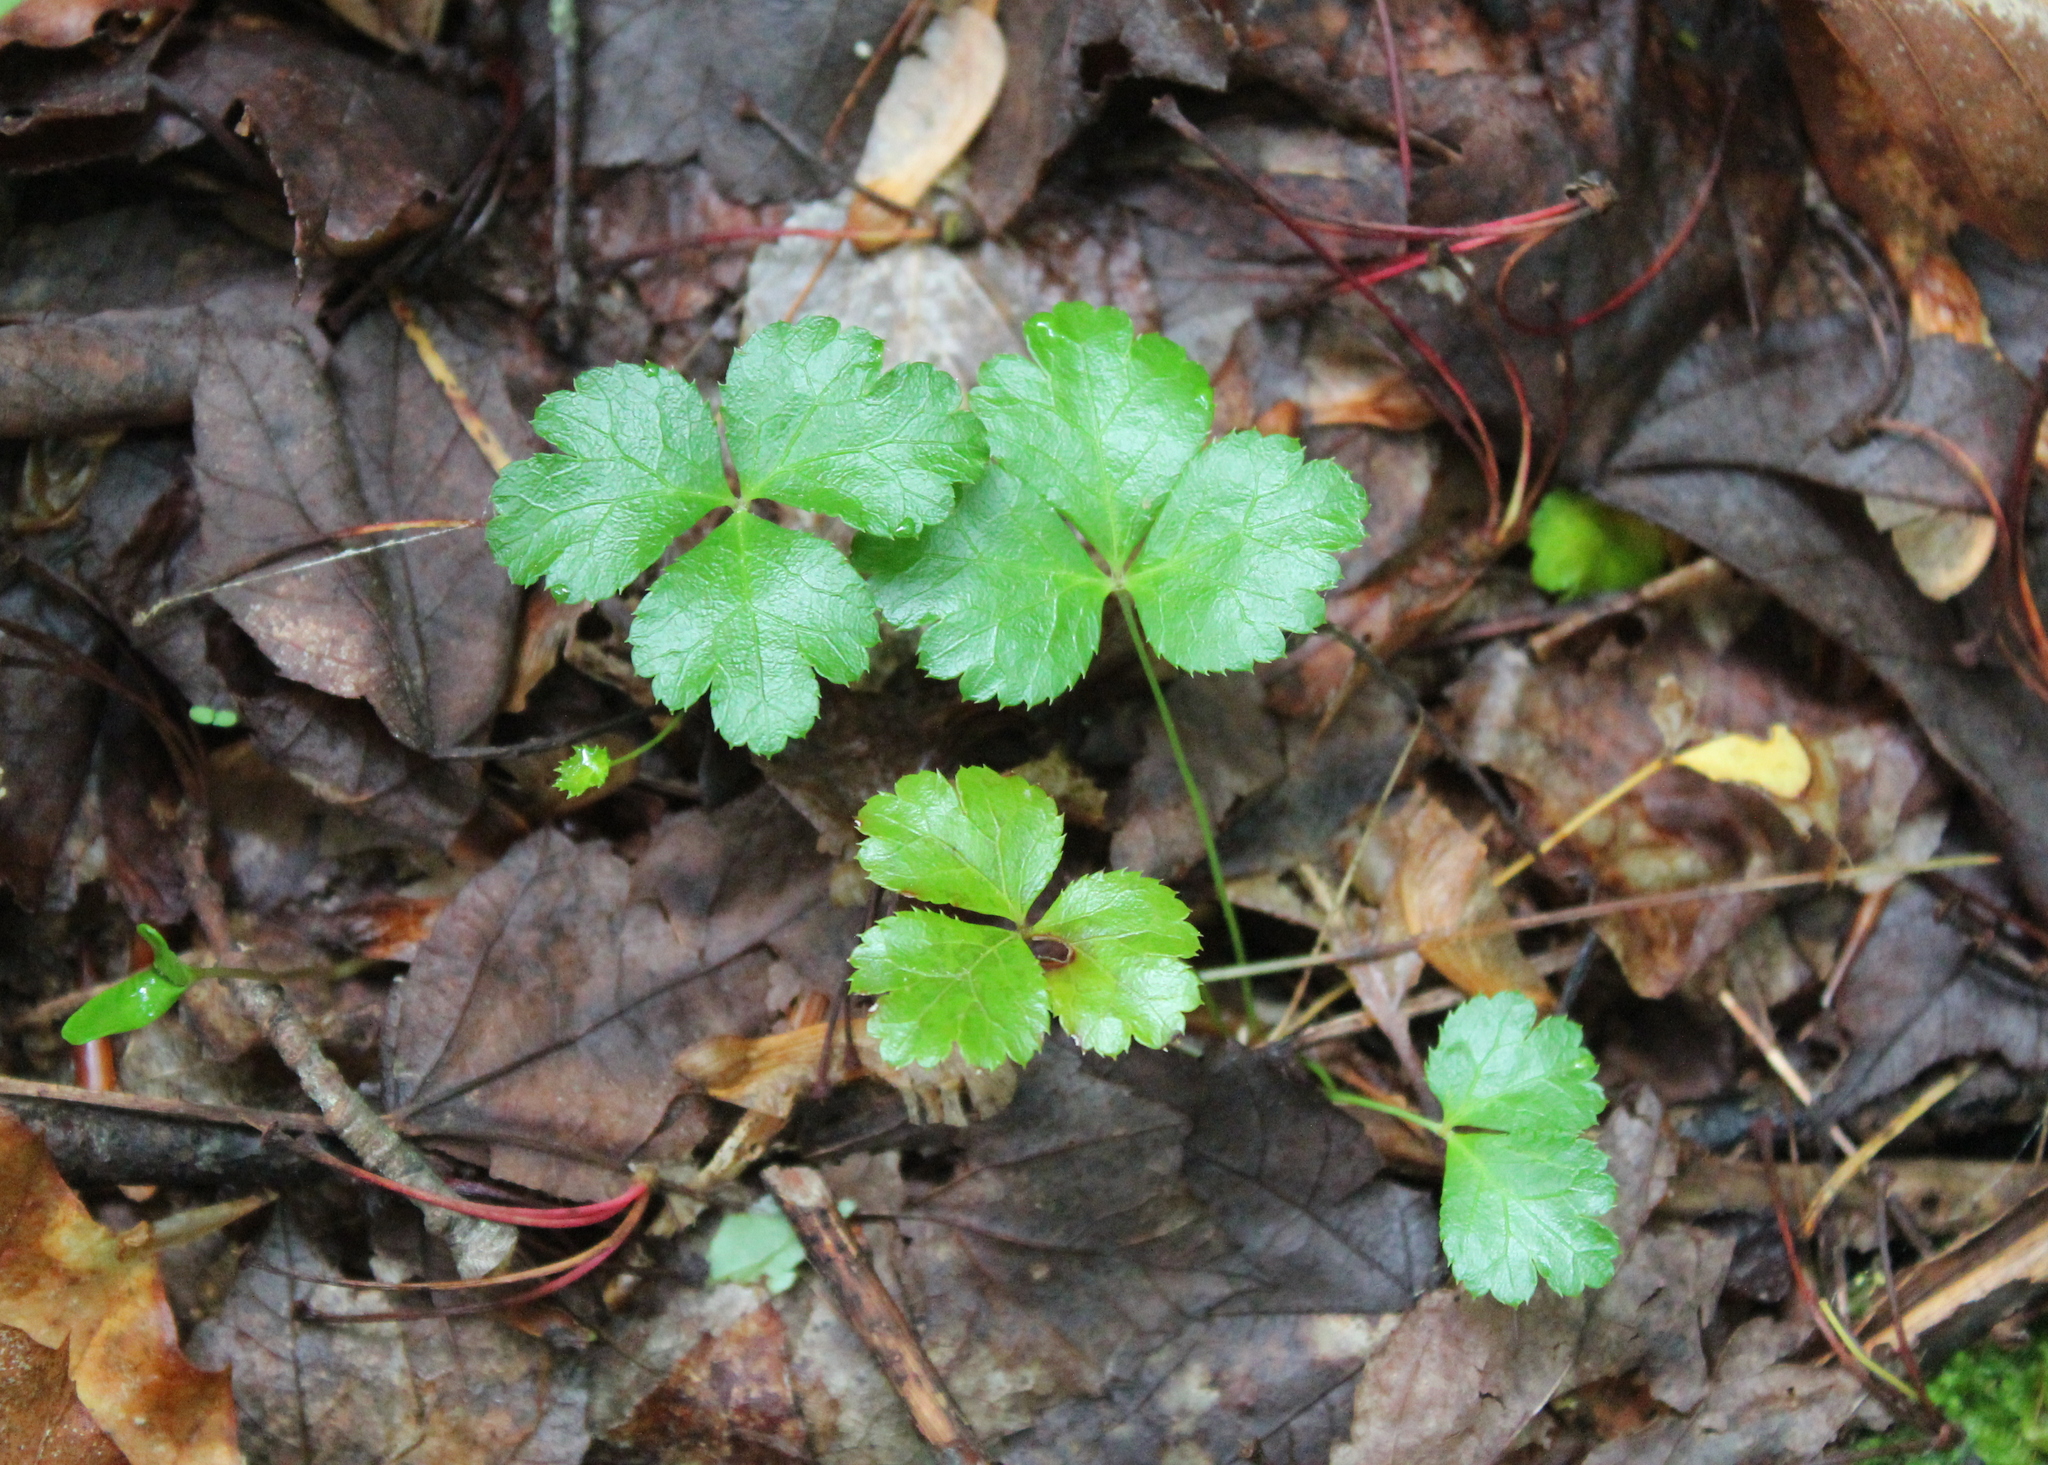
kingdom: Plantae
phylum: Tracheophyta
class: Magnoliopsida
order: Ranunculales
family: Ranunculaceae
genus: Coptis
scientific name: Coptis trifolia
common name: Canker-root
